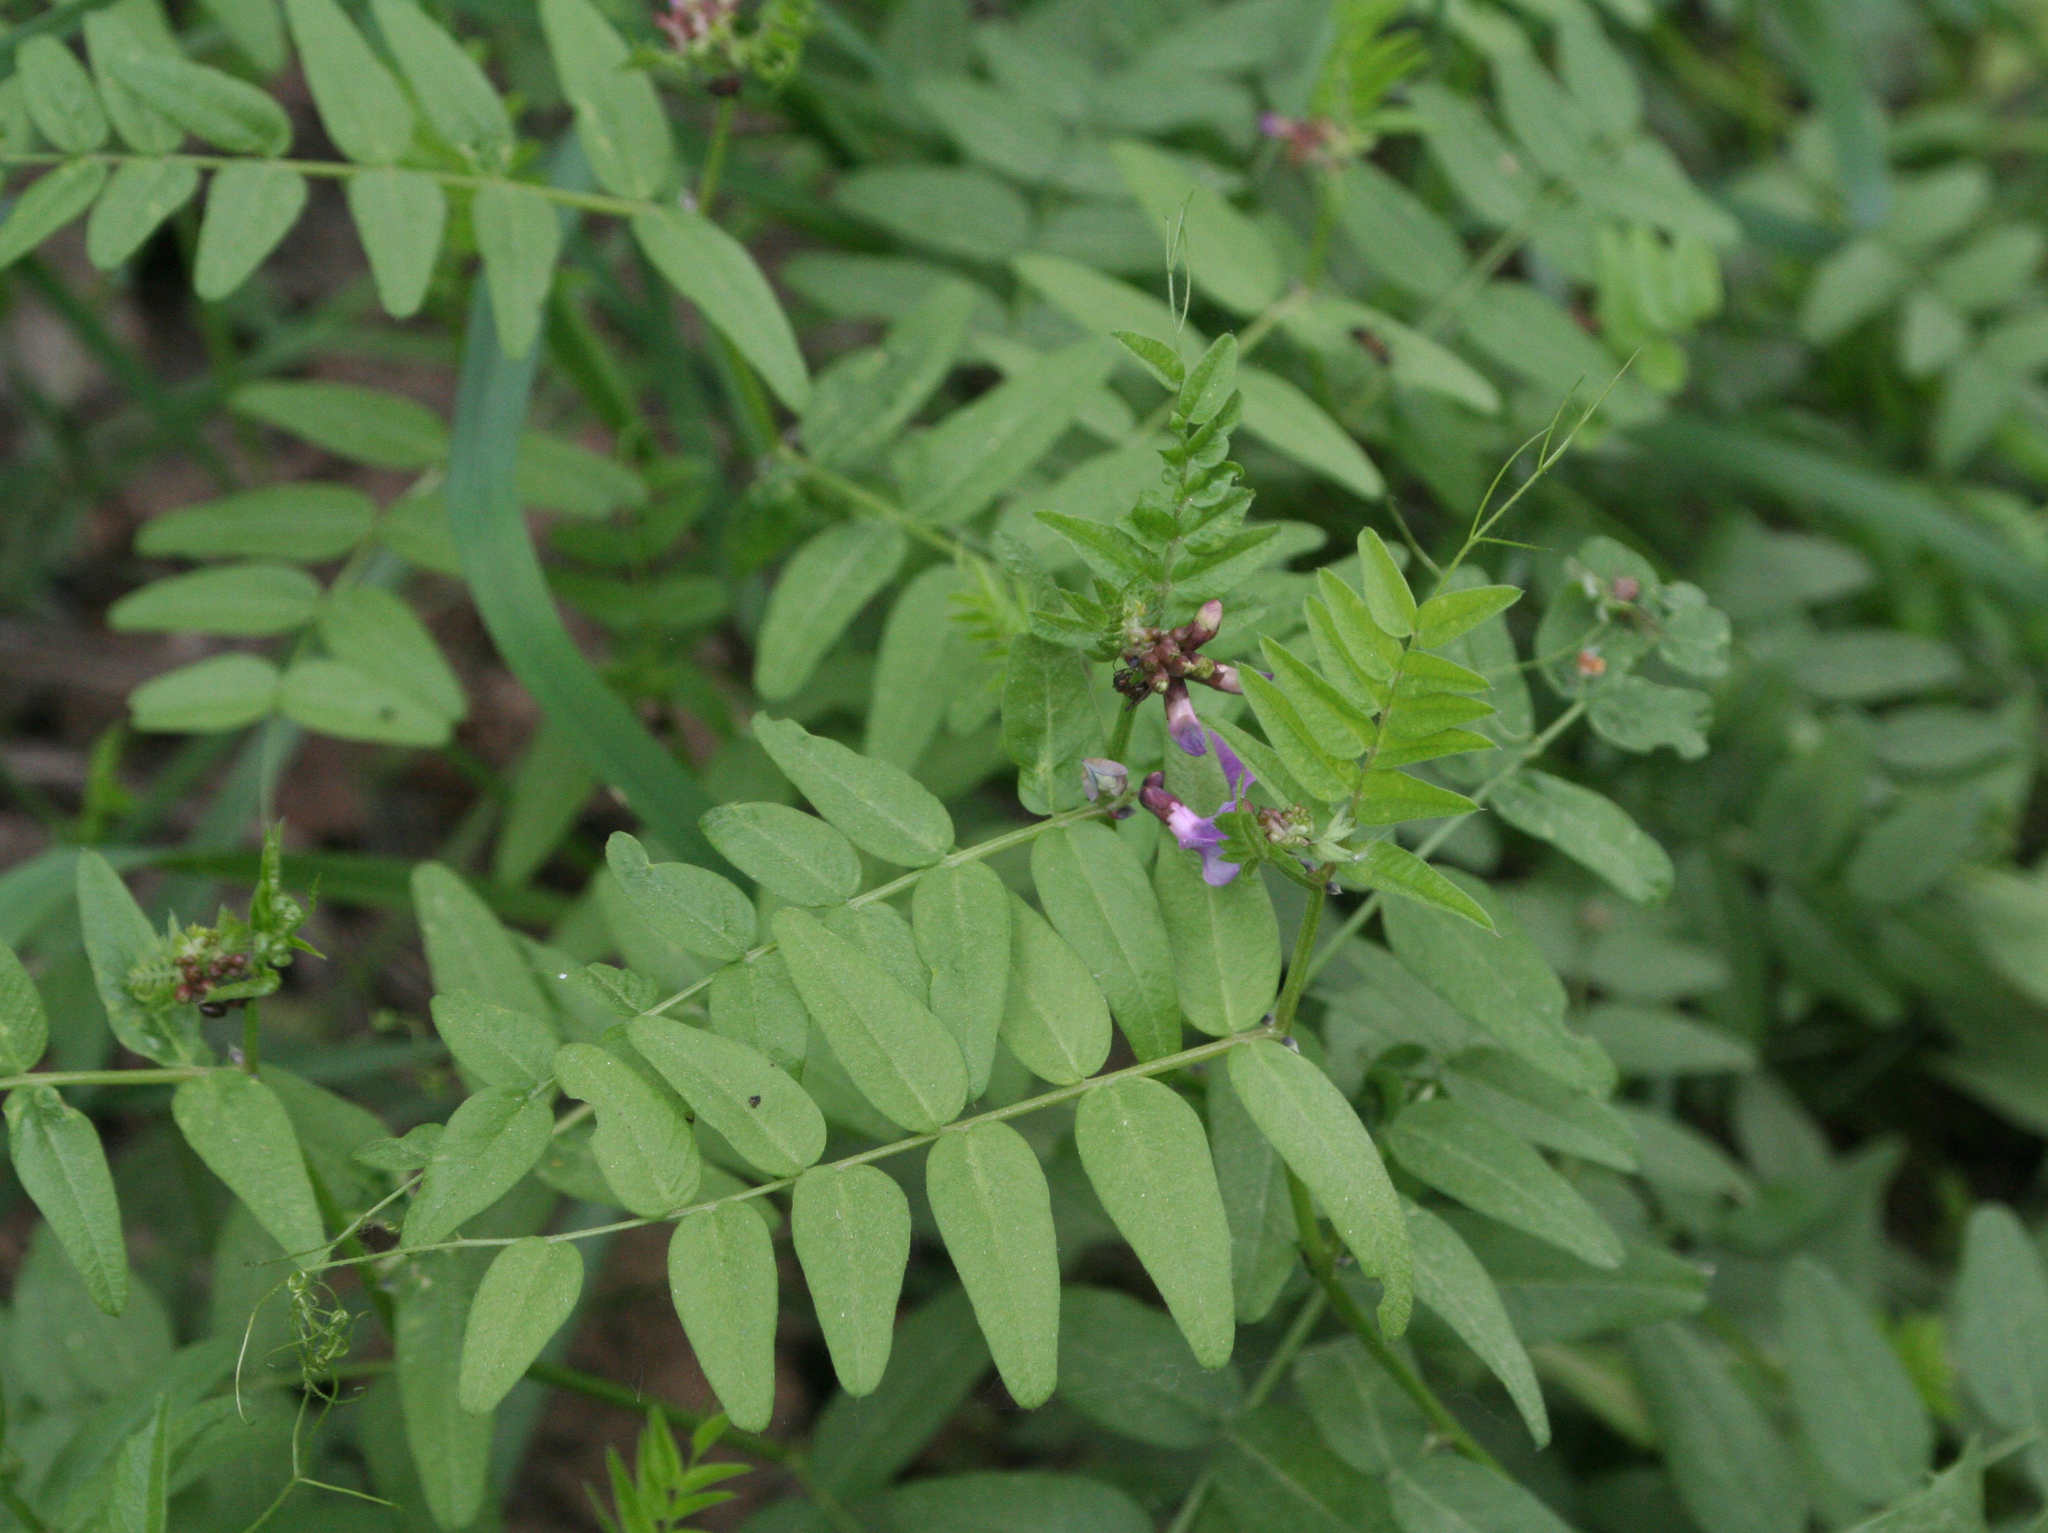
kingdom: Plantae
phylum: Tracheophyta
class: Magnoliopsida
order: Fabales
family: Fabaceae
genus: Vicia
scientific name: Vicia sepium
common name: Bush vetch
